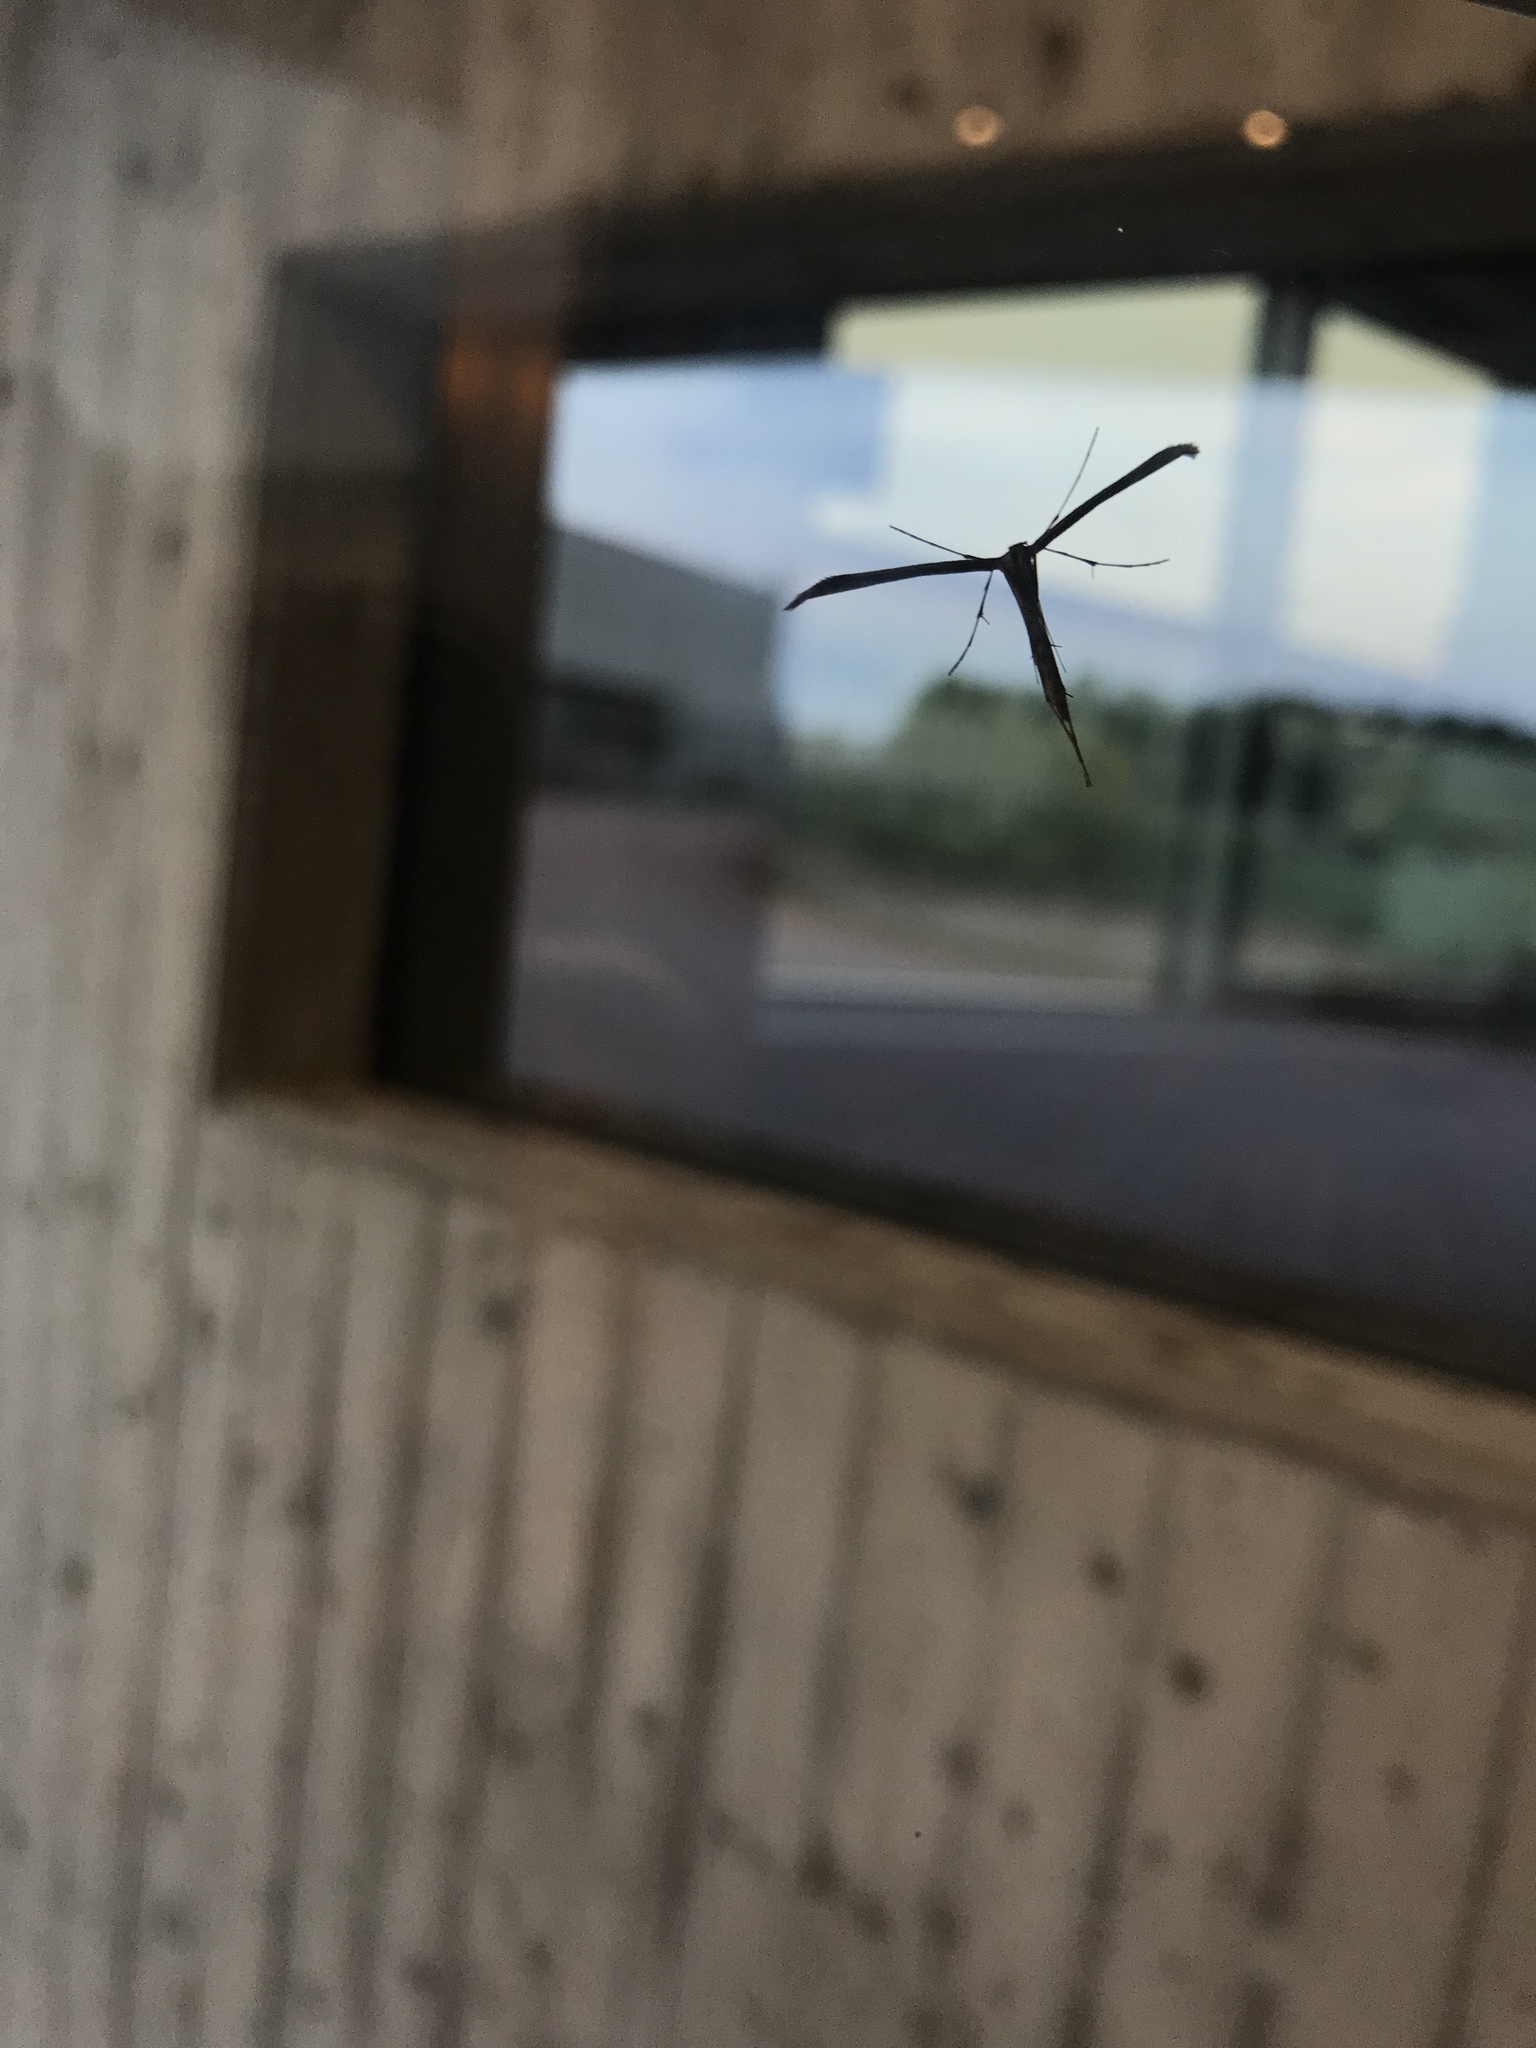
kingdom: Animalia
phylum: Arthropoda
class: Insecta
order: Lepidoptera
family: Pterophoridae
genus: Emmelina
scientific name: Emmelina monodactyla
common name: Common plume
